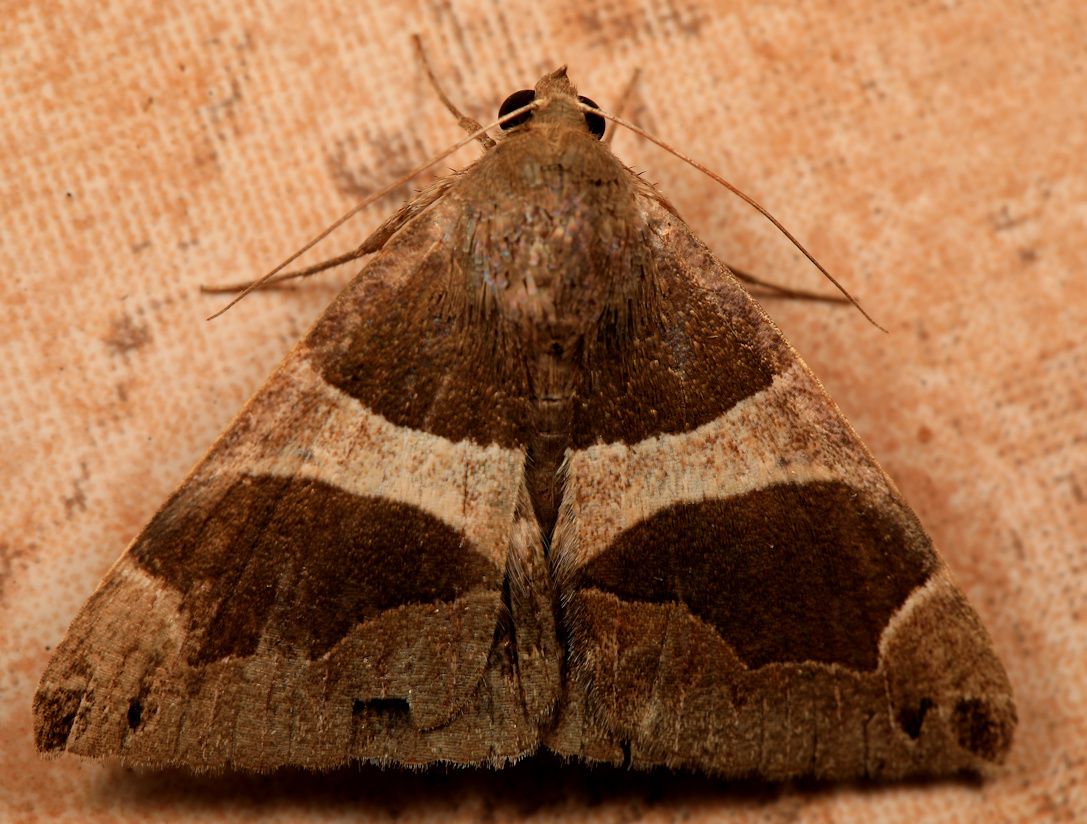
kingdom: Animalia
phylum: Arthropoda
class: Insecta
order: Lepidoptera
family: Erebidae
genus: Dysgonia
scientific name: Dysgonia torrida
